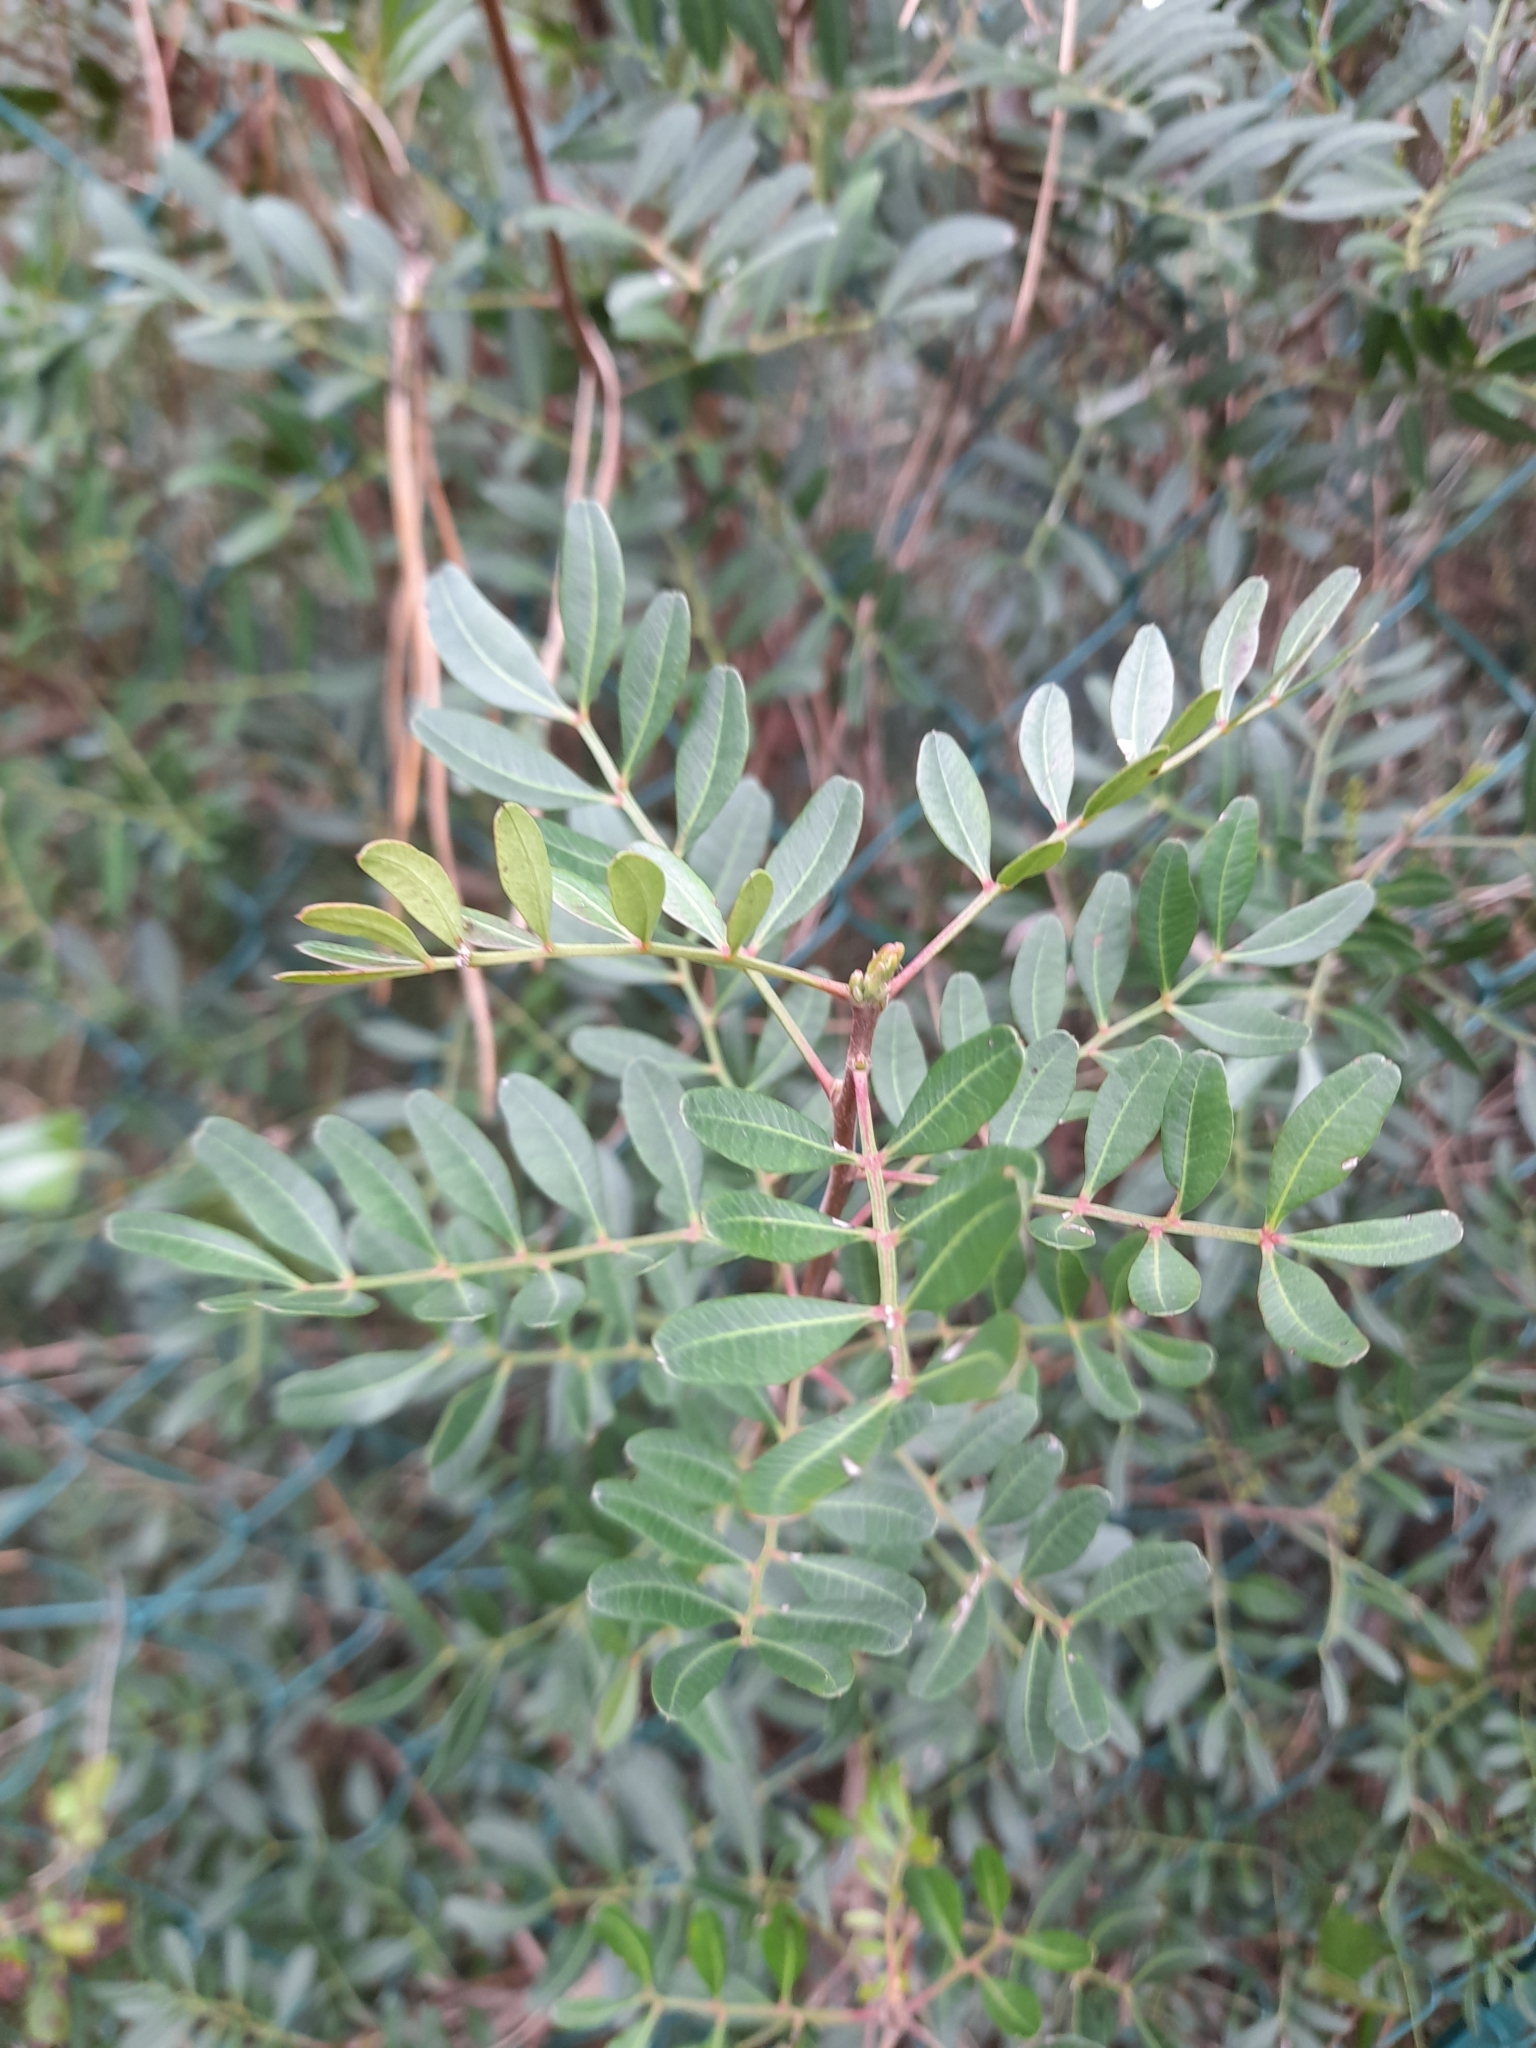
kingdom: Plantae
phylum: Tracheophyta
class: Magnoliopsida
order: Sapindales
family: Anacardiaceae
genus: Pistacia
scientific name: Pistacia lentiscus
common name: Lentisk
